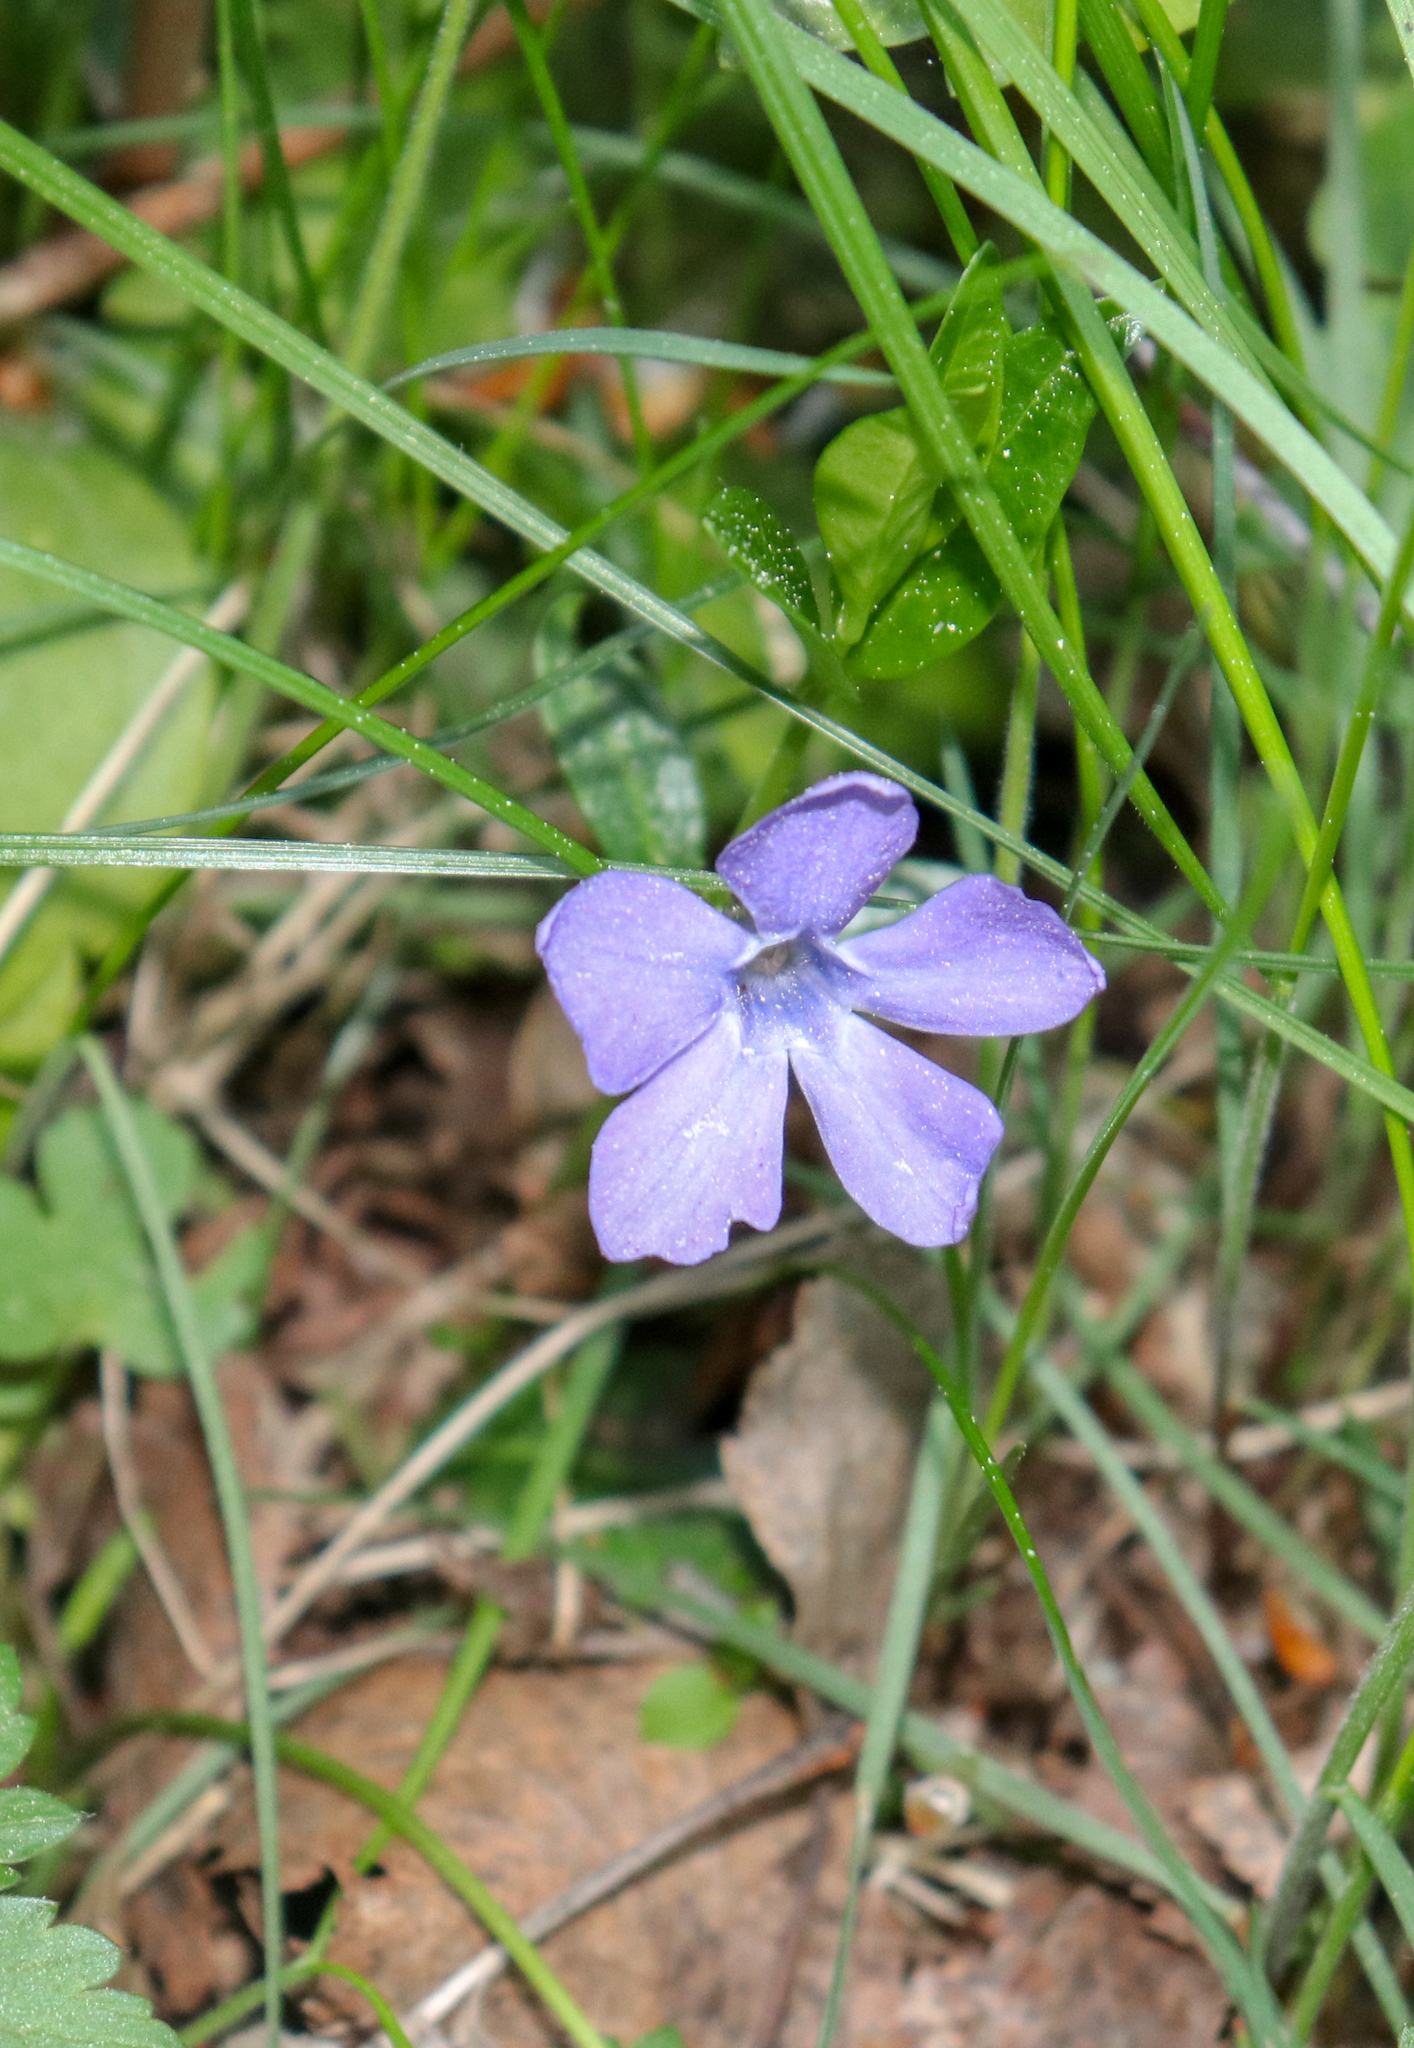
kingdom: Plantae
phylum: Tracheophyta
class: Magnoliopsida
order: Gentianales
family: Apocynaceae
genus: Vinca
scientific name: Vinca minor
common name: Lesser periwinkle
